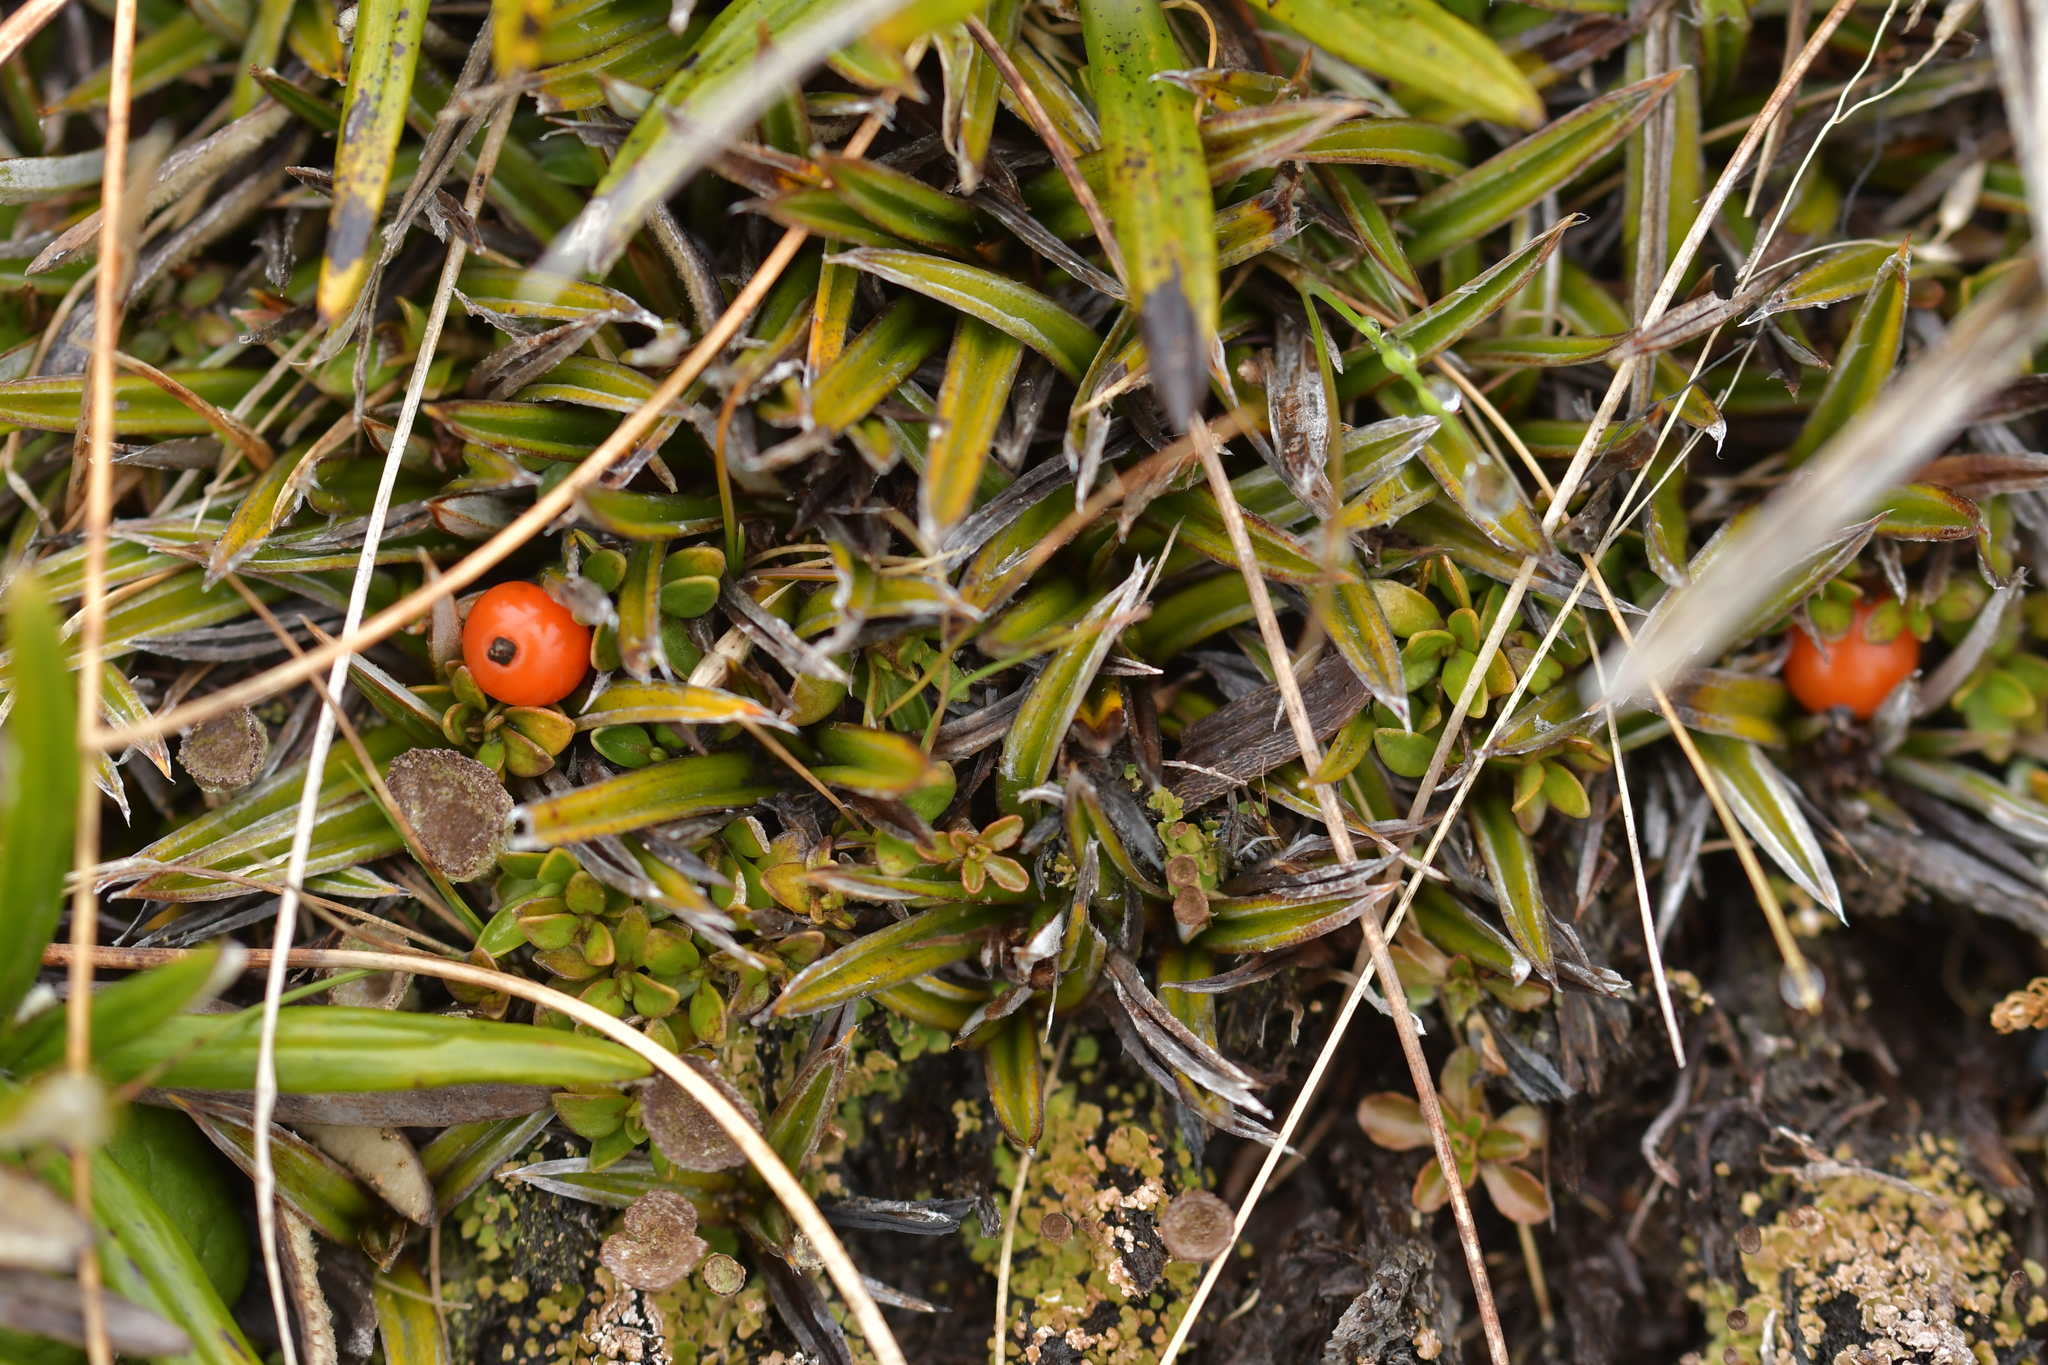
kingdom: Plantae
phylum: Tracheophyta
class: Liliopsida
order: Asparagales
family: Asteliaceae
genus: Astelia
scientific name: Astelia linearis
